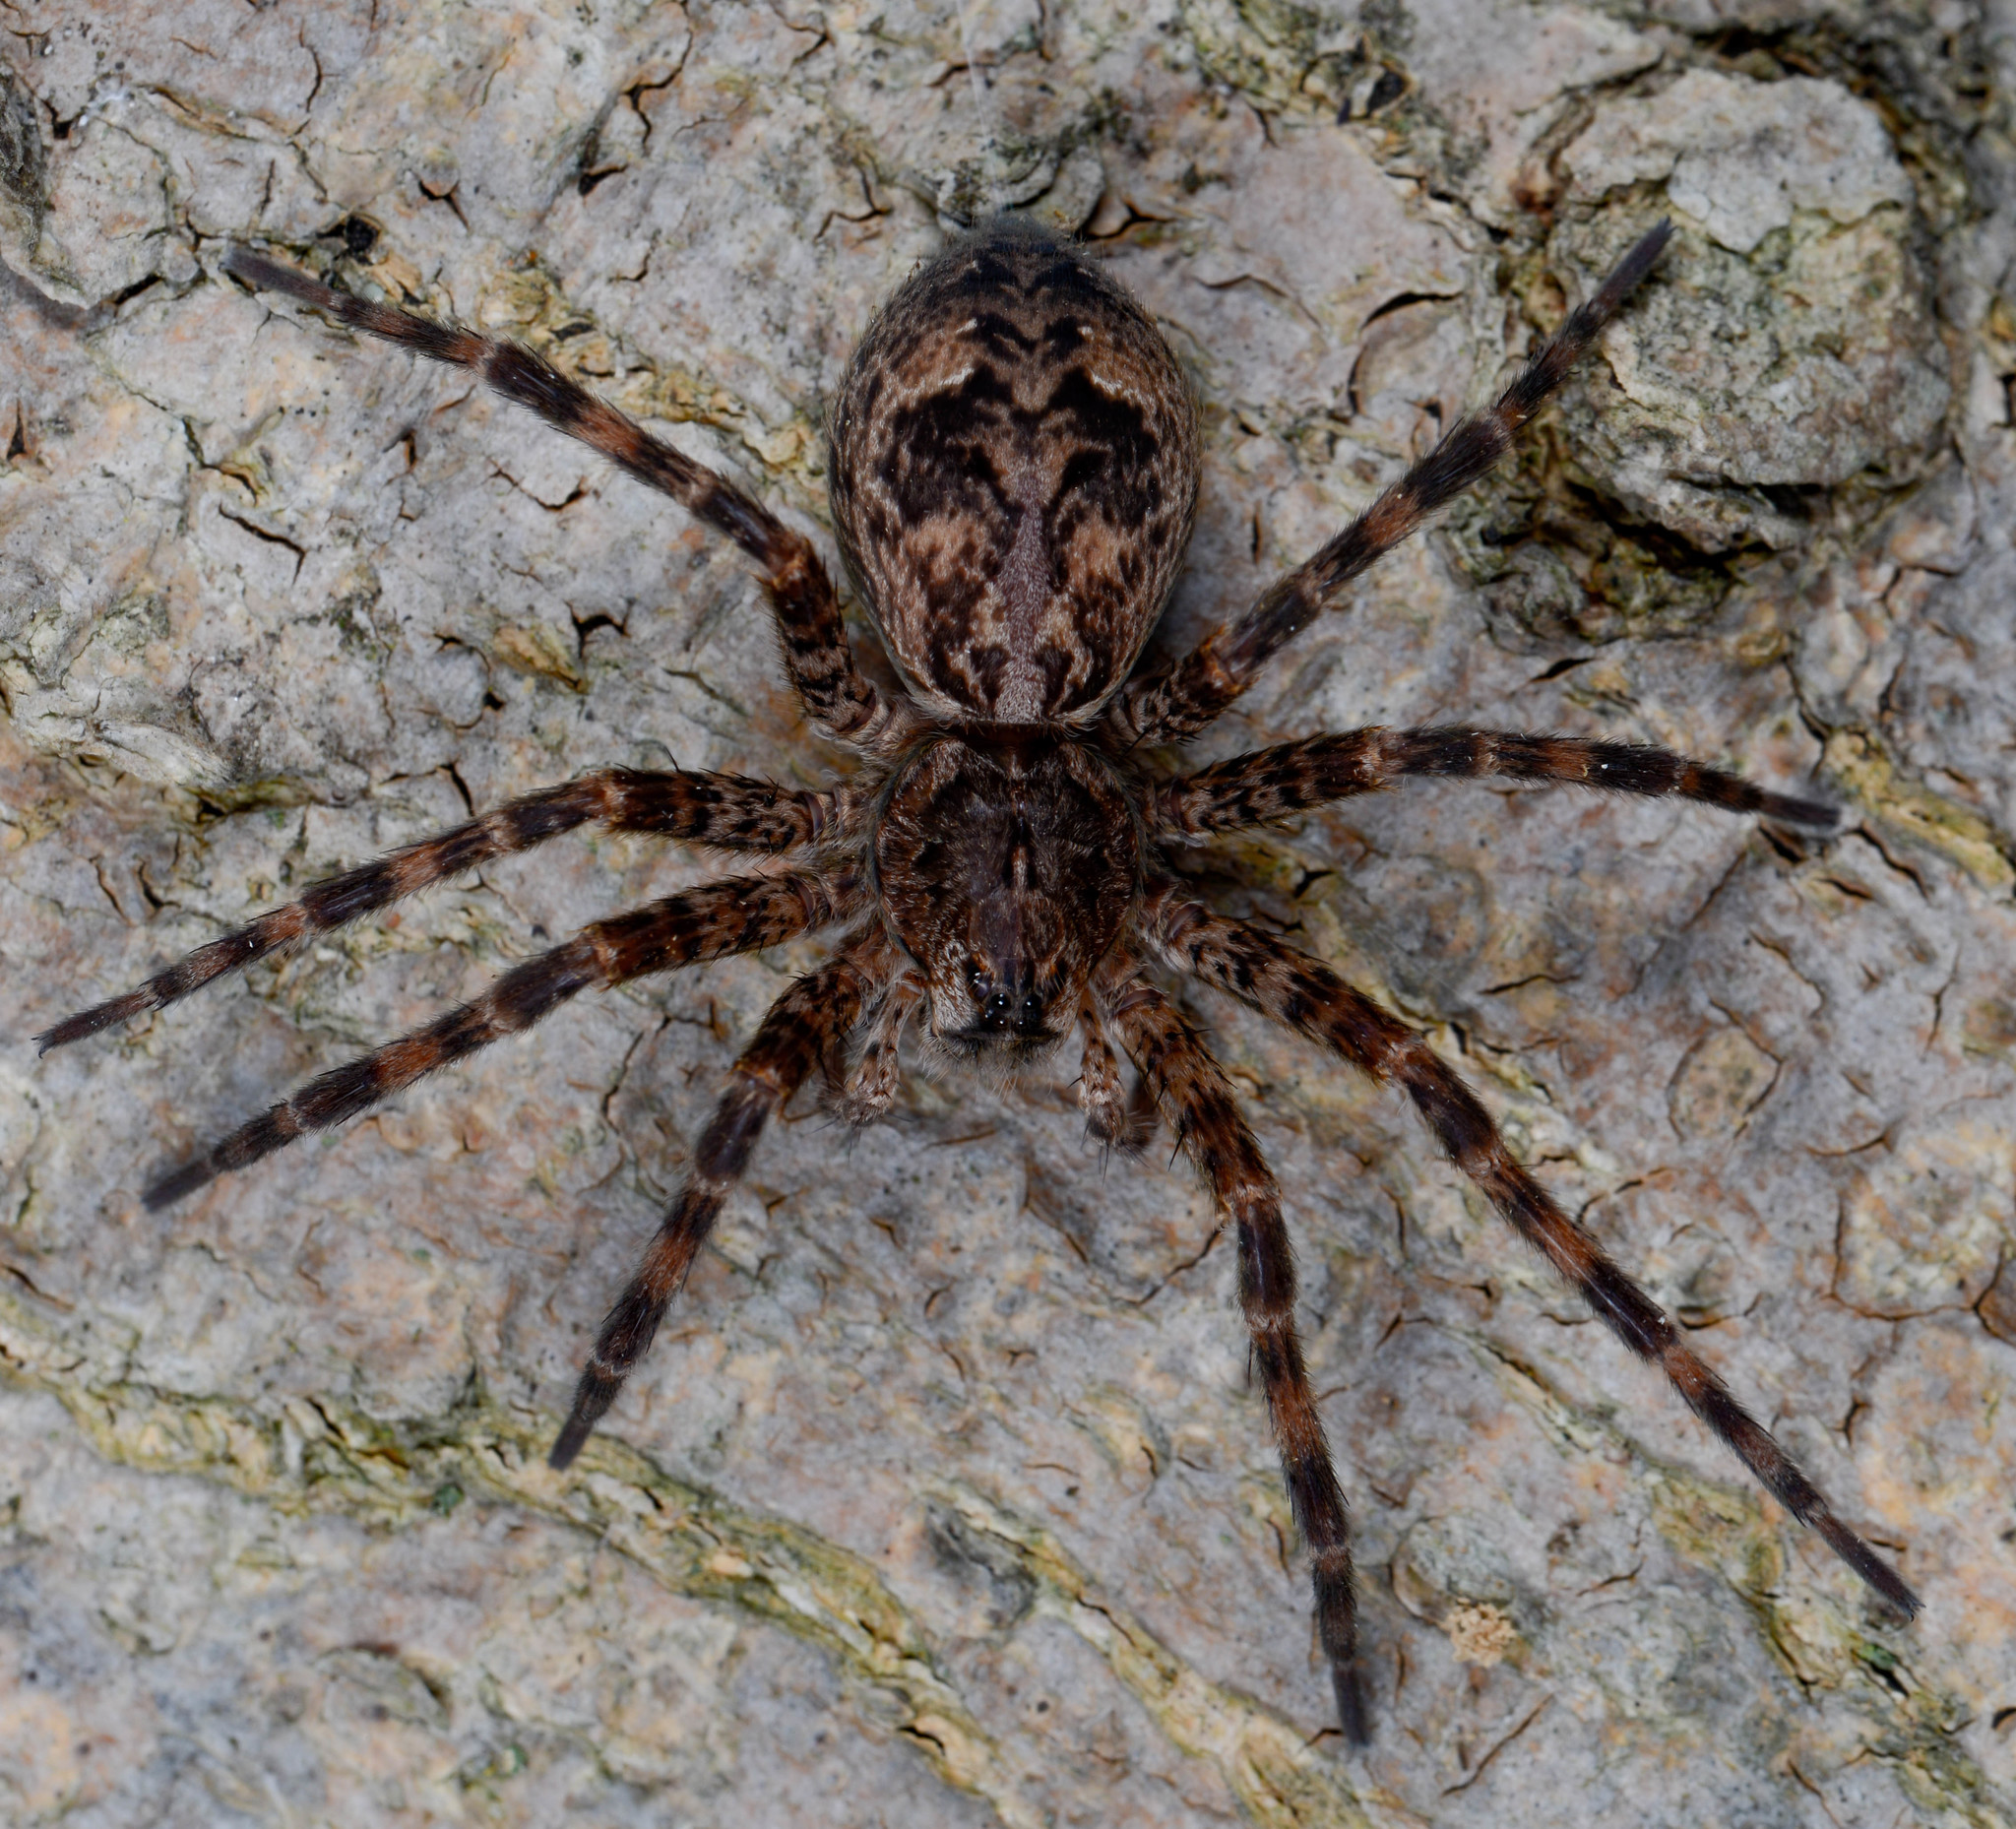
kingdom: Animalia
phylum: Arthropoda
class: Arachnida
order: Araneae
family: Pisauridae
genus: Dolomedes
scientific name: Dolomedes tenebrosus
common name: Dark fishing spider
